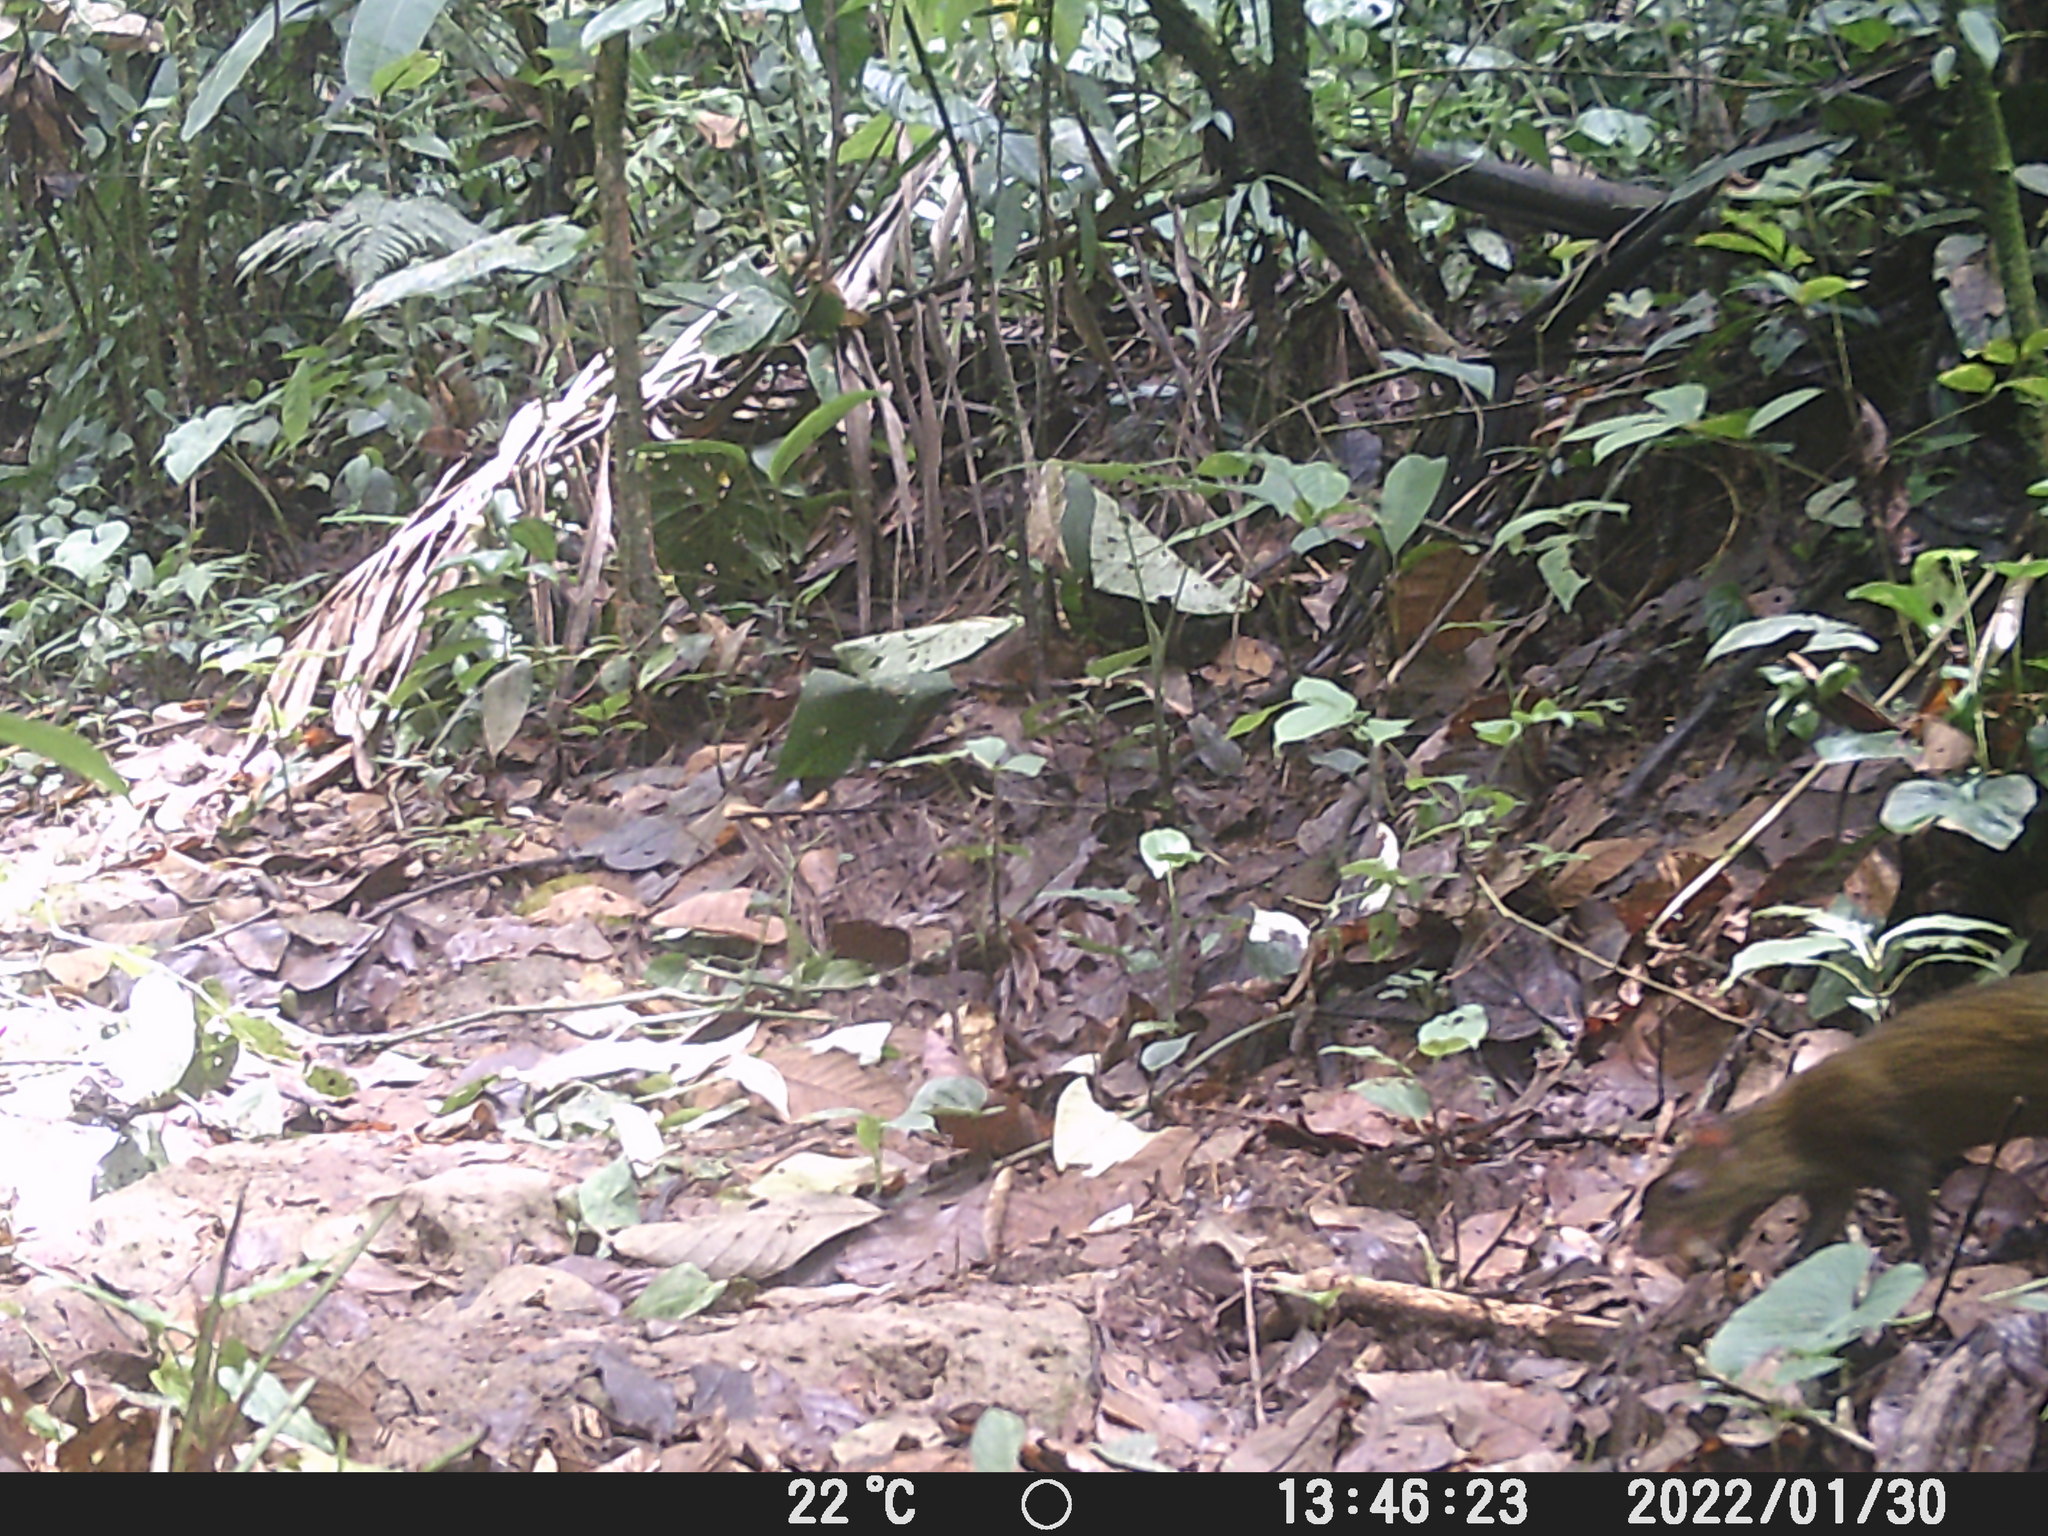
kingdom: Animalia
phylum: Chordata
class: Mammalia
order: Rodentia
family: Dasyproctidae
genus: Dasyprocta
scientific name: Dasyprocta punctata
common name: Central american agouti
